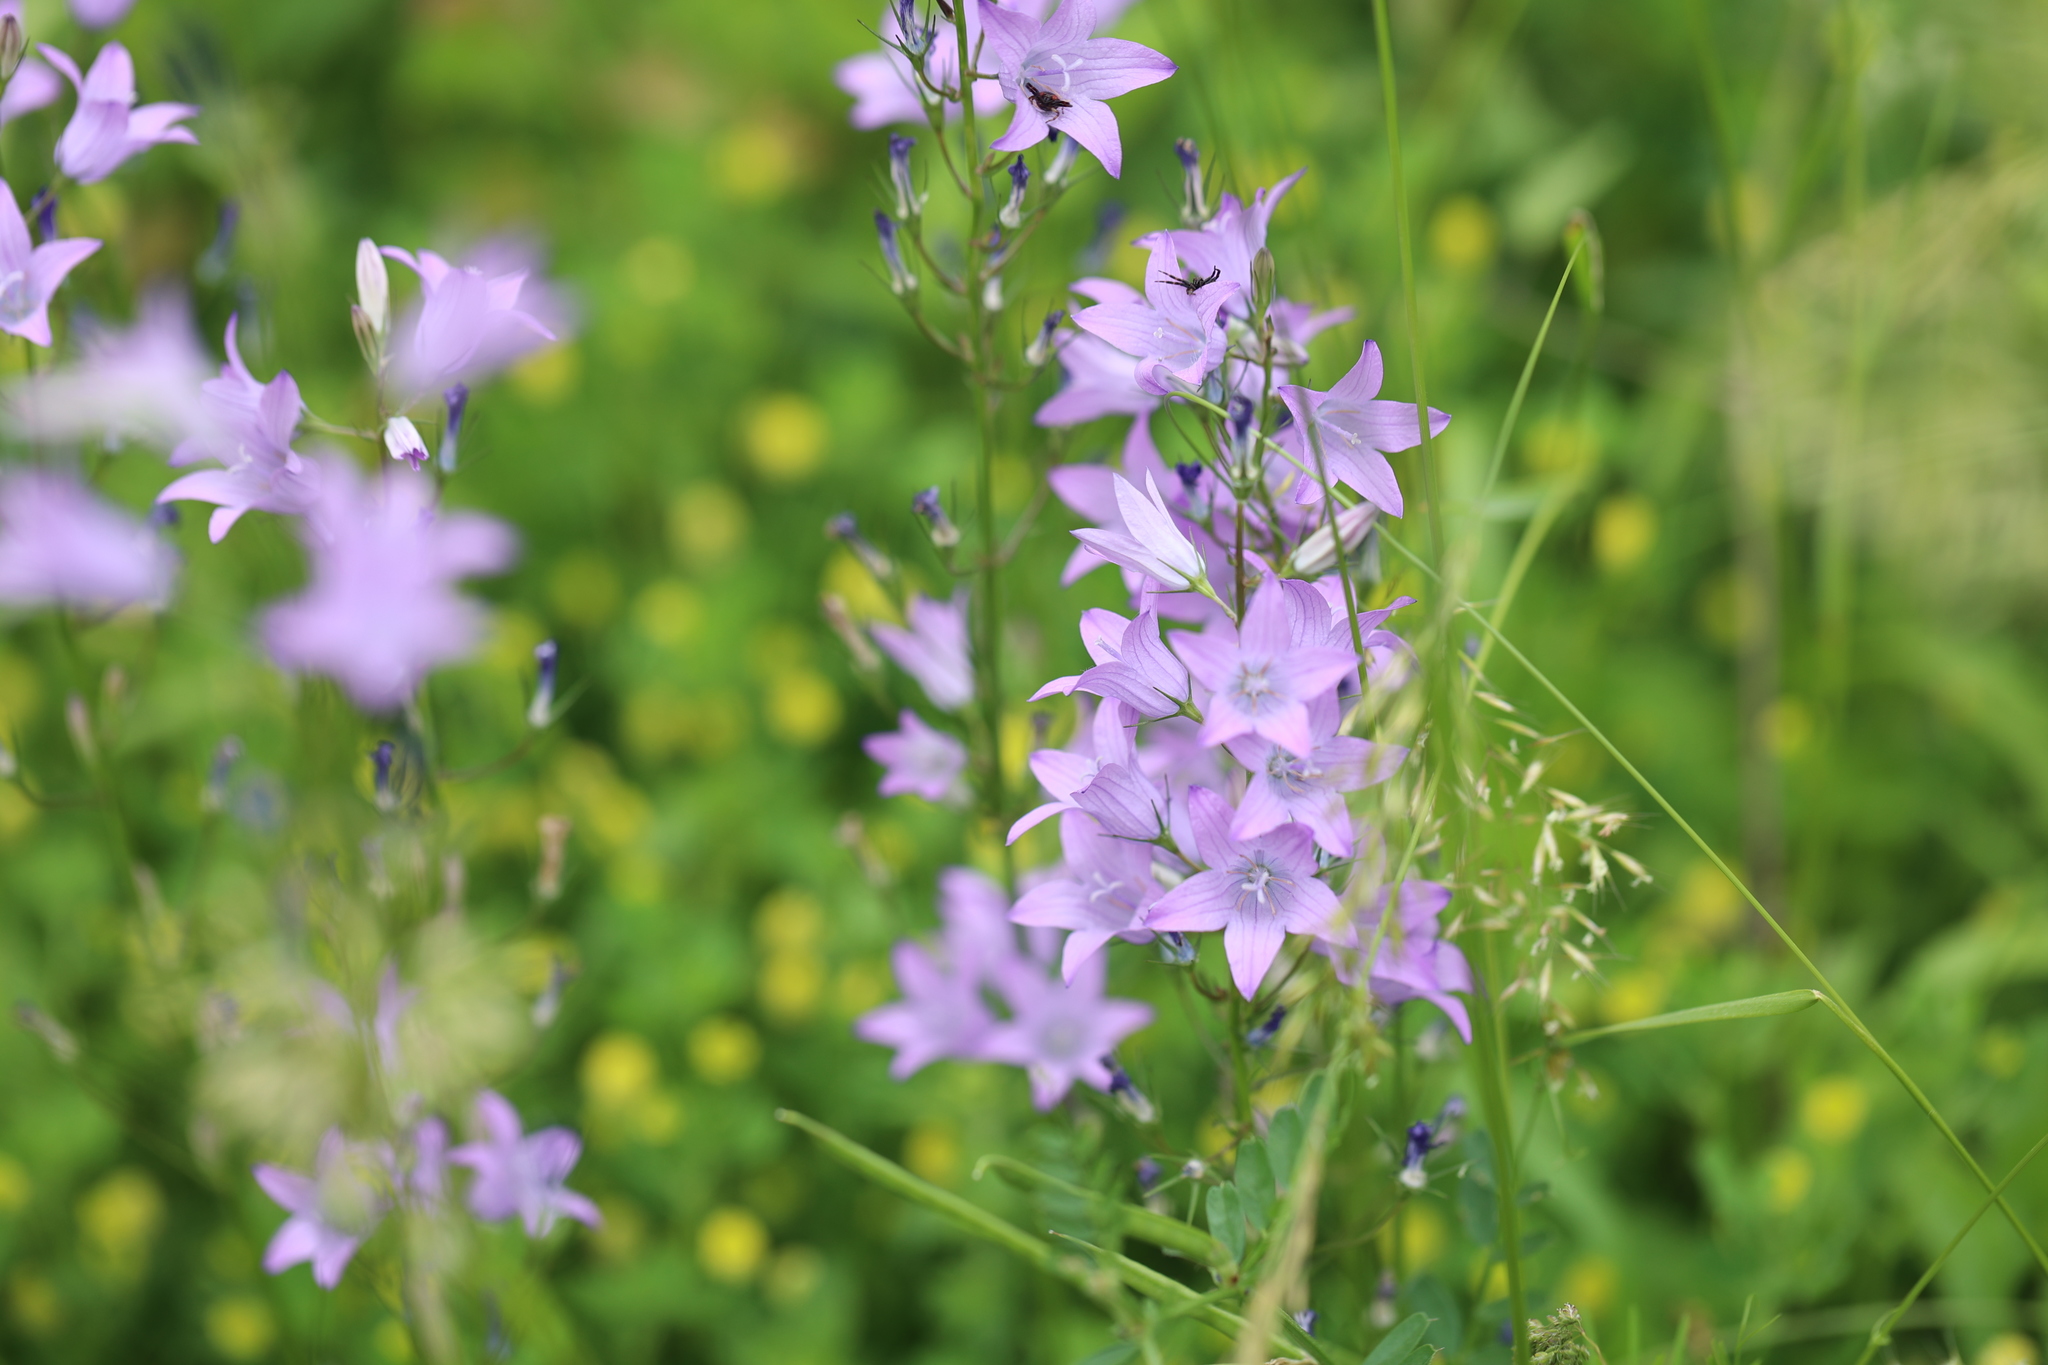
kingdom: Plantae
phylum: Tracheophyta
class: Magnoliopsida
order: Asterales
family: Campanulaceae
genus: Campanula
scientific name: Campanula rapunculus
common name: Rampion bellflower
